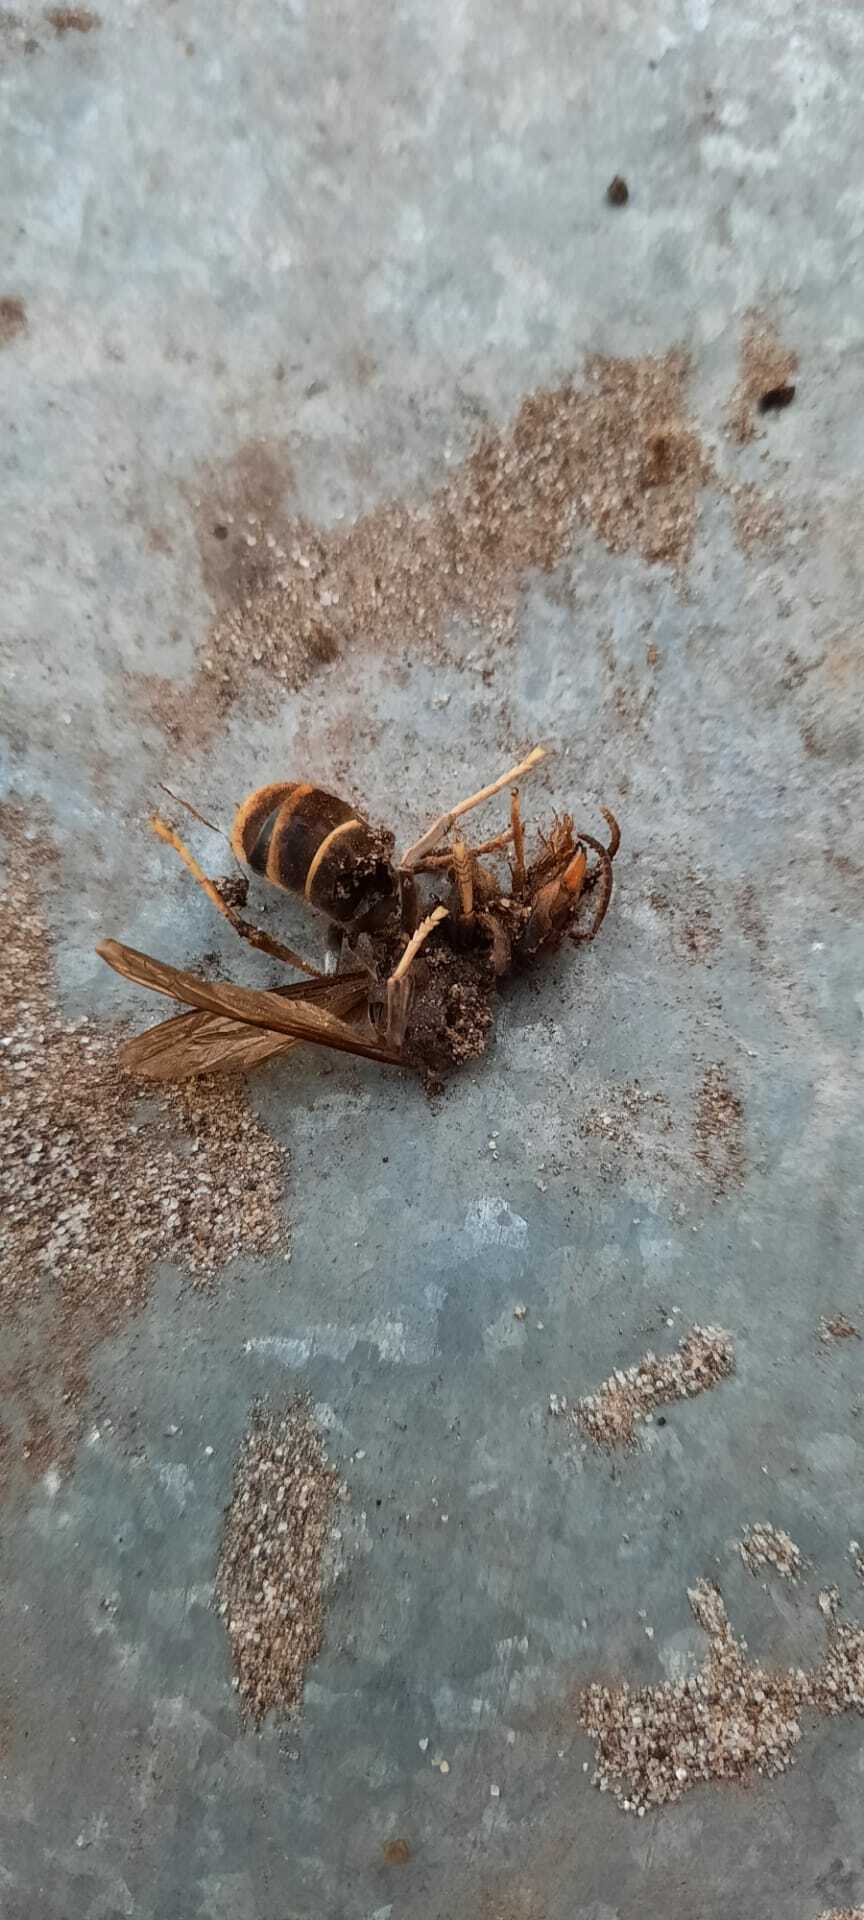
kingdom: Animalia
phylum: Arthropoda
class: Insecta
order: Hymenoptera
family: Vespidae
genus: Vespa
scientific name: Vespa velutina
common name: Asian hornet
